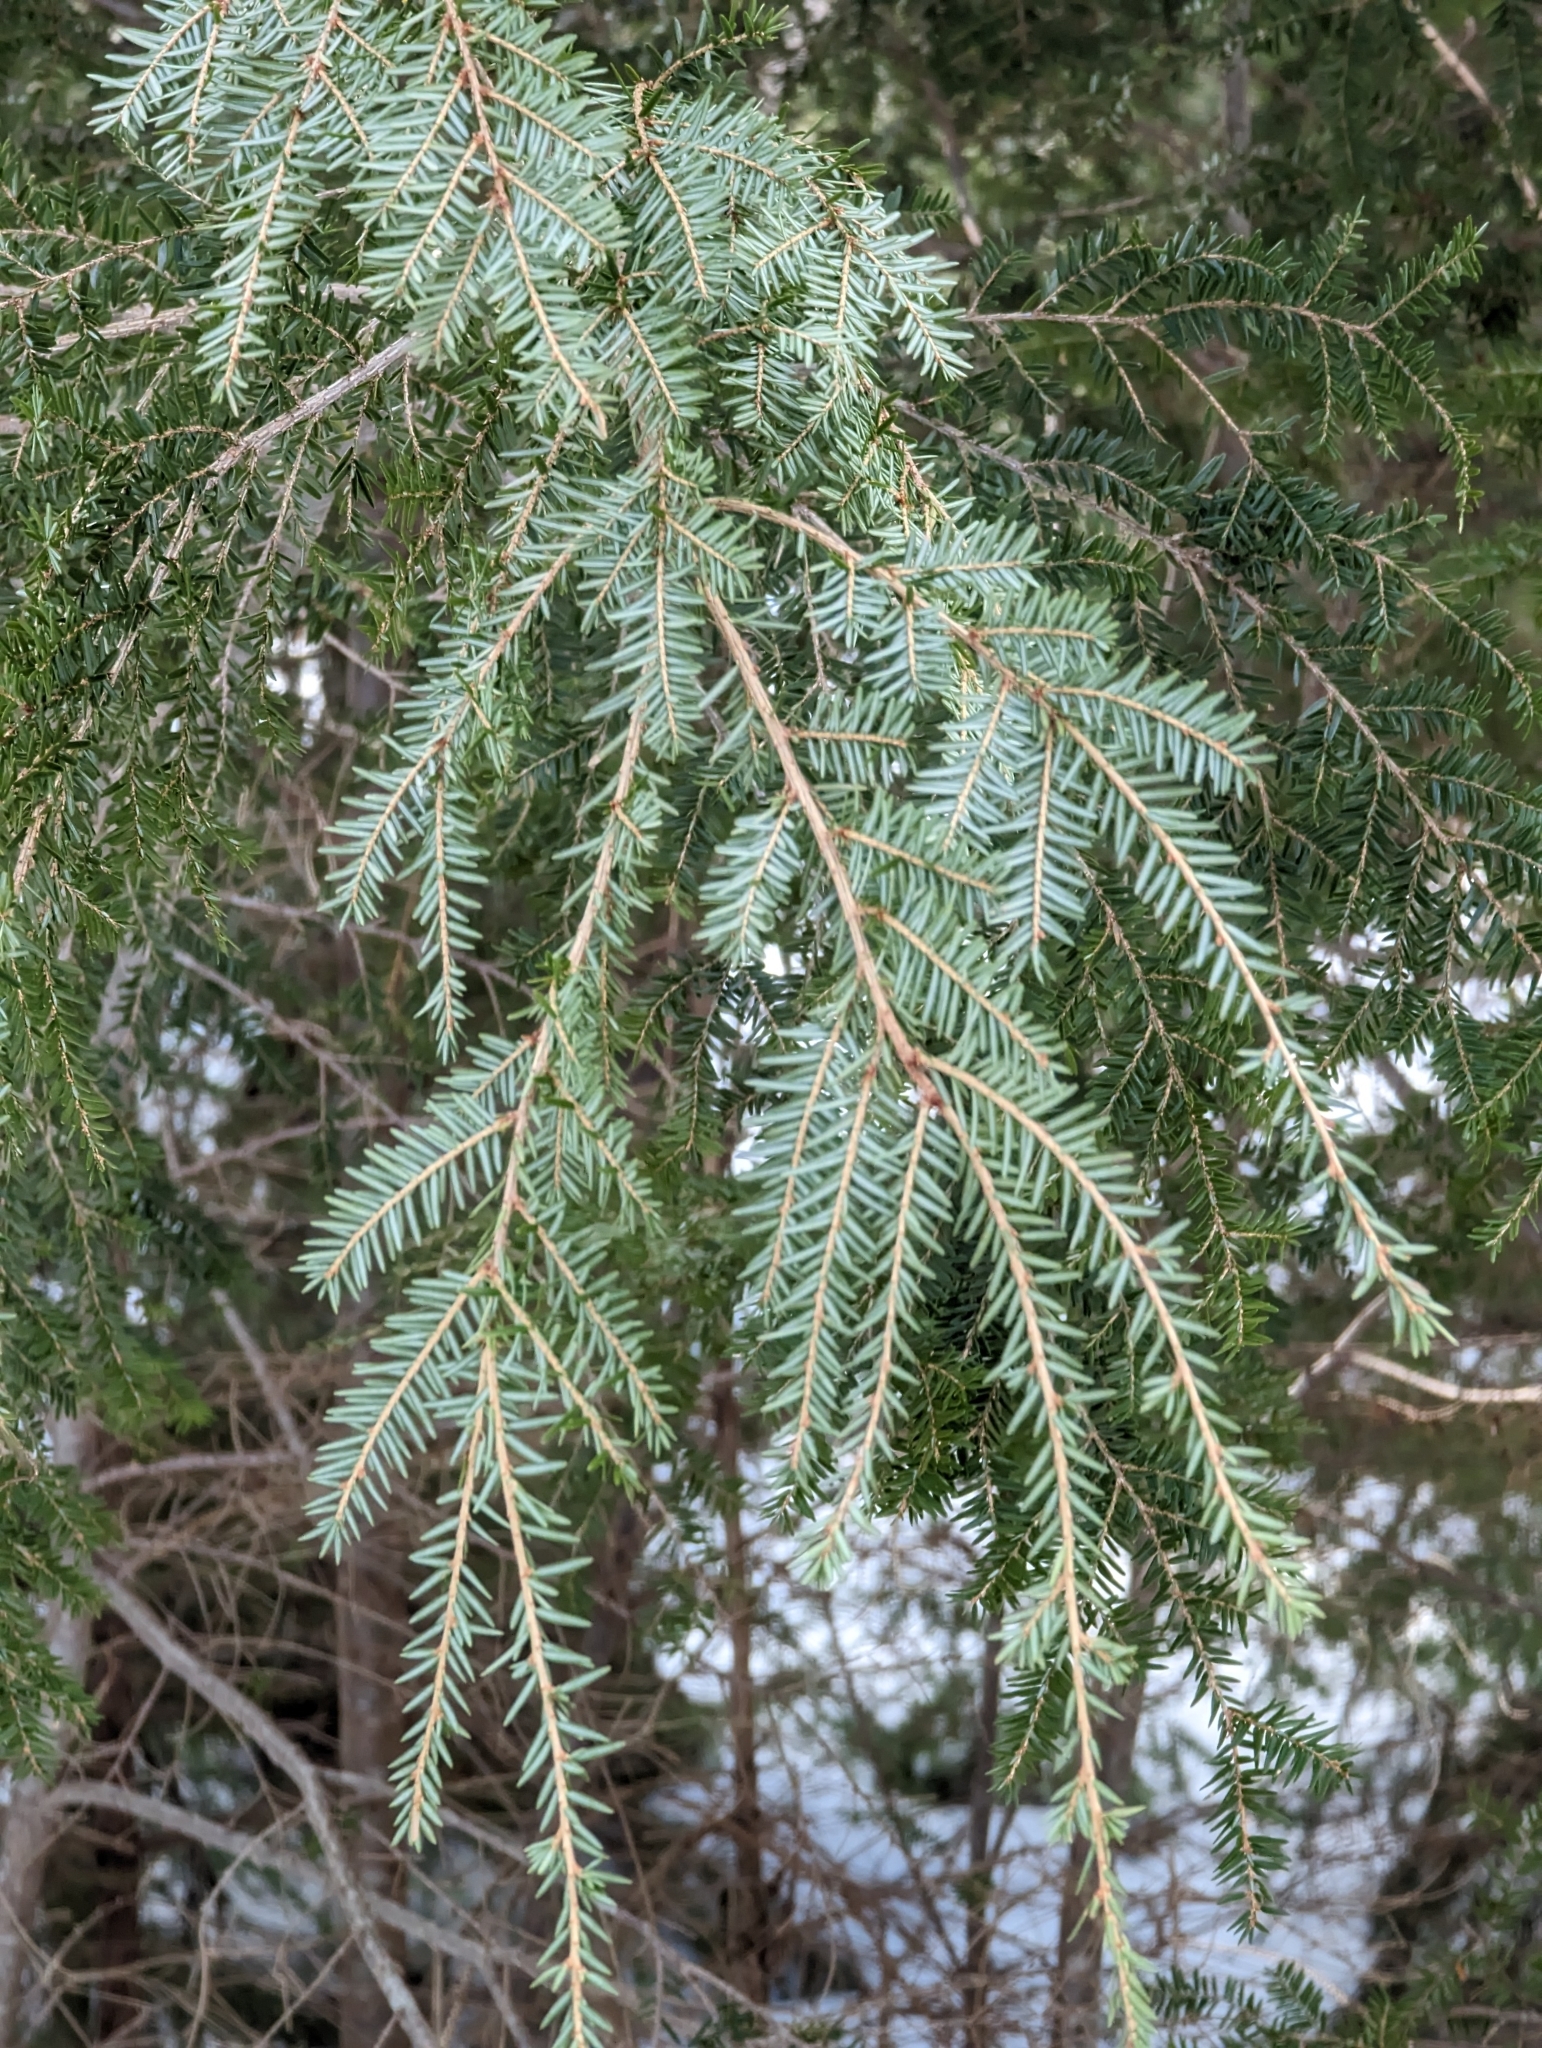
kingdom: Plantae
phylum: Tracheophyta
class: Pinopsida
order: Pinales
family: Pinaceae
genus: Tsuga
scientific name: Tsuga canadensis
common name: Eastern hemlock
